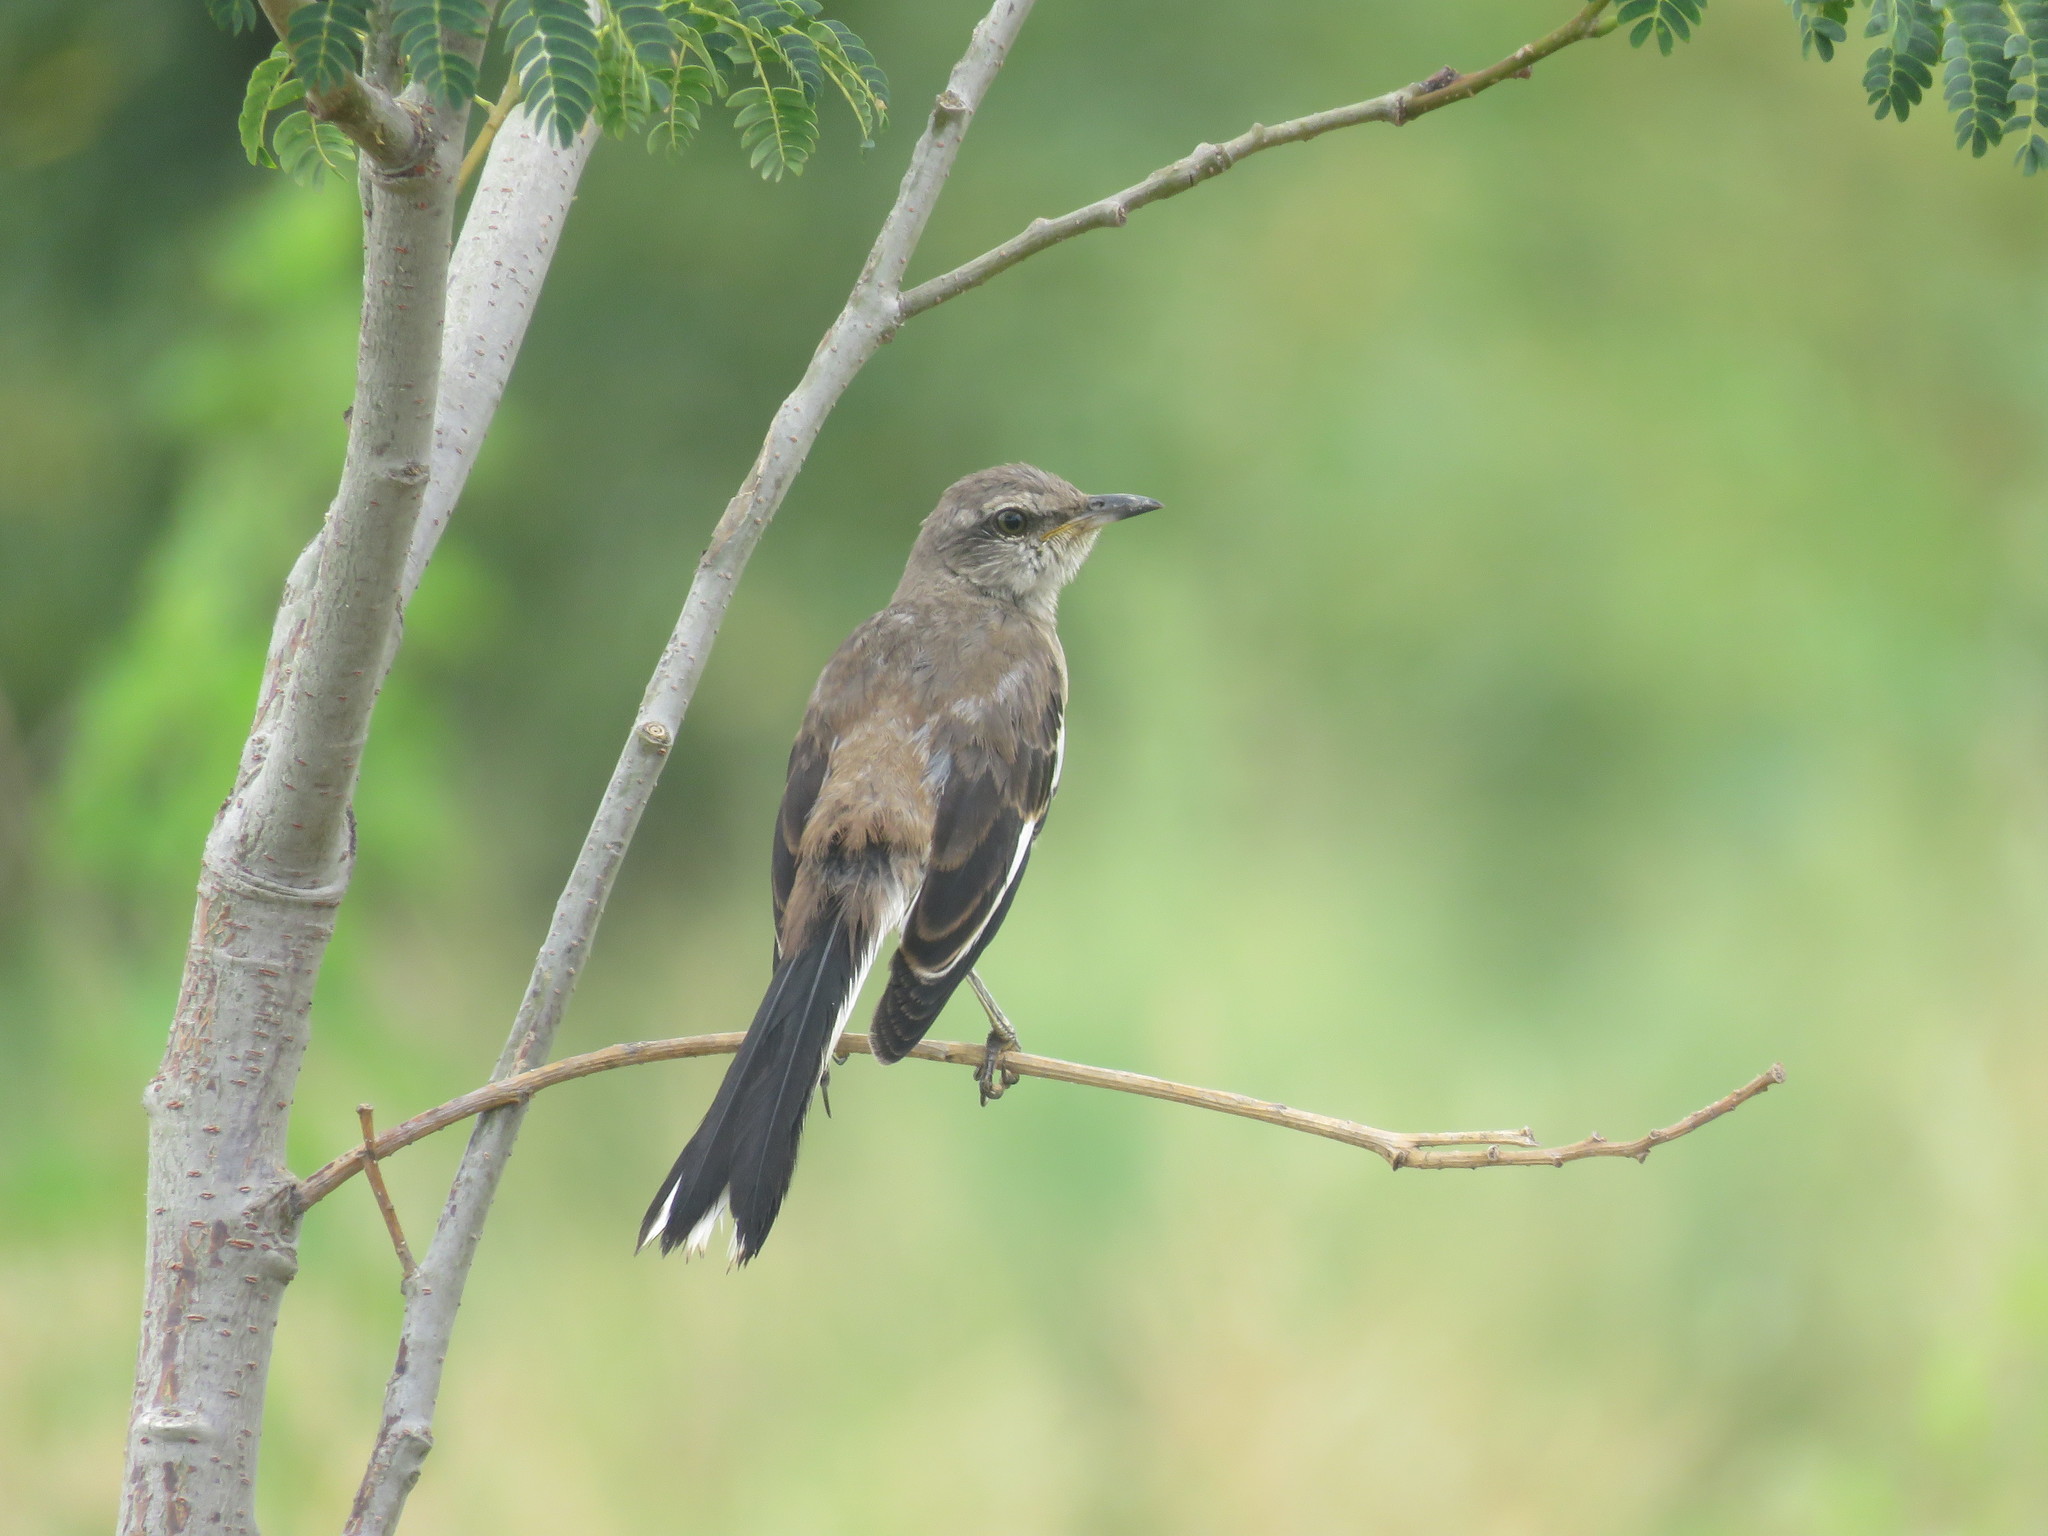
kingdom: Animalia
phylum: Chordata
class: Aves
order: Passeriformes
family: Mimidae
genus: Mimus
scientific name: Mimus triurus
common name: White-banded mockingbird
